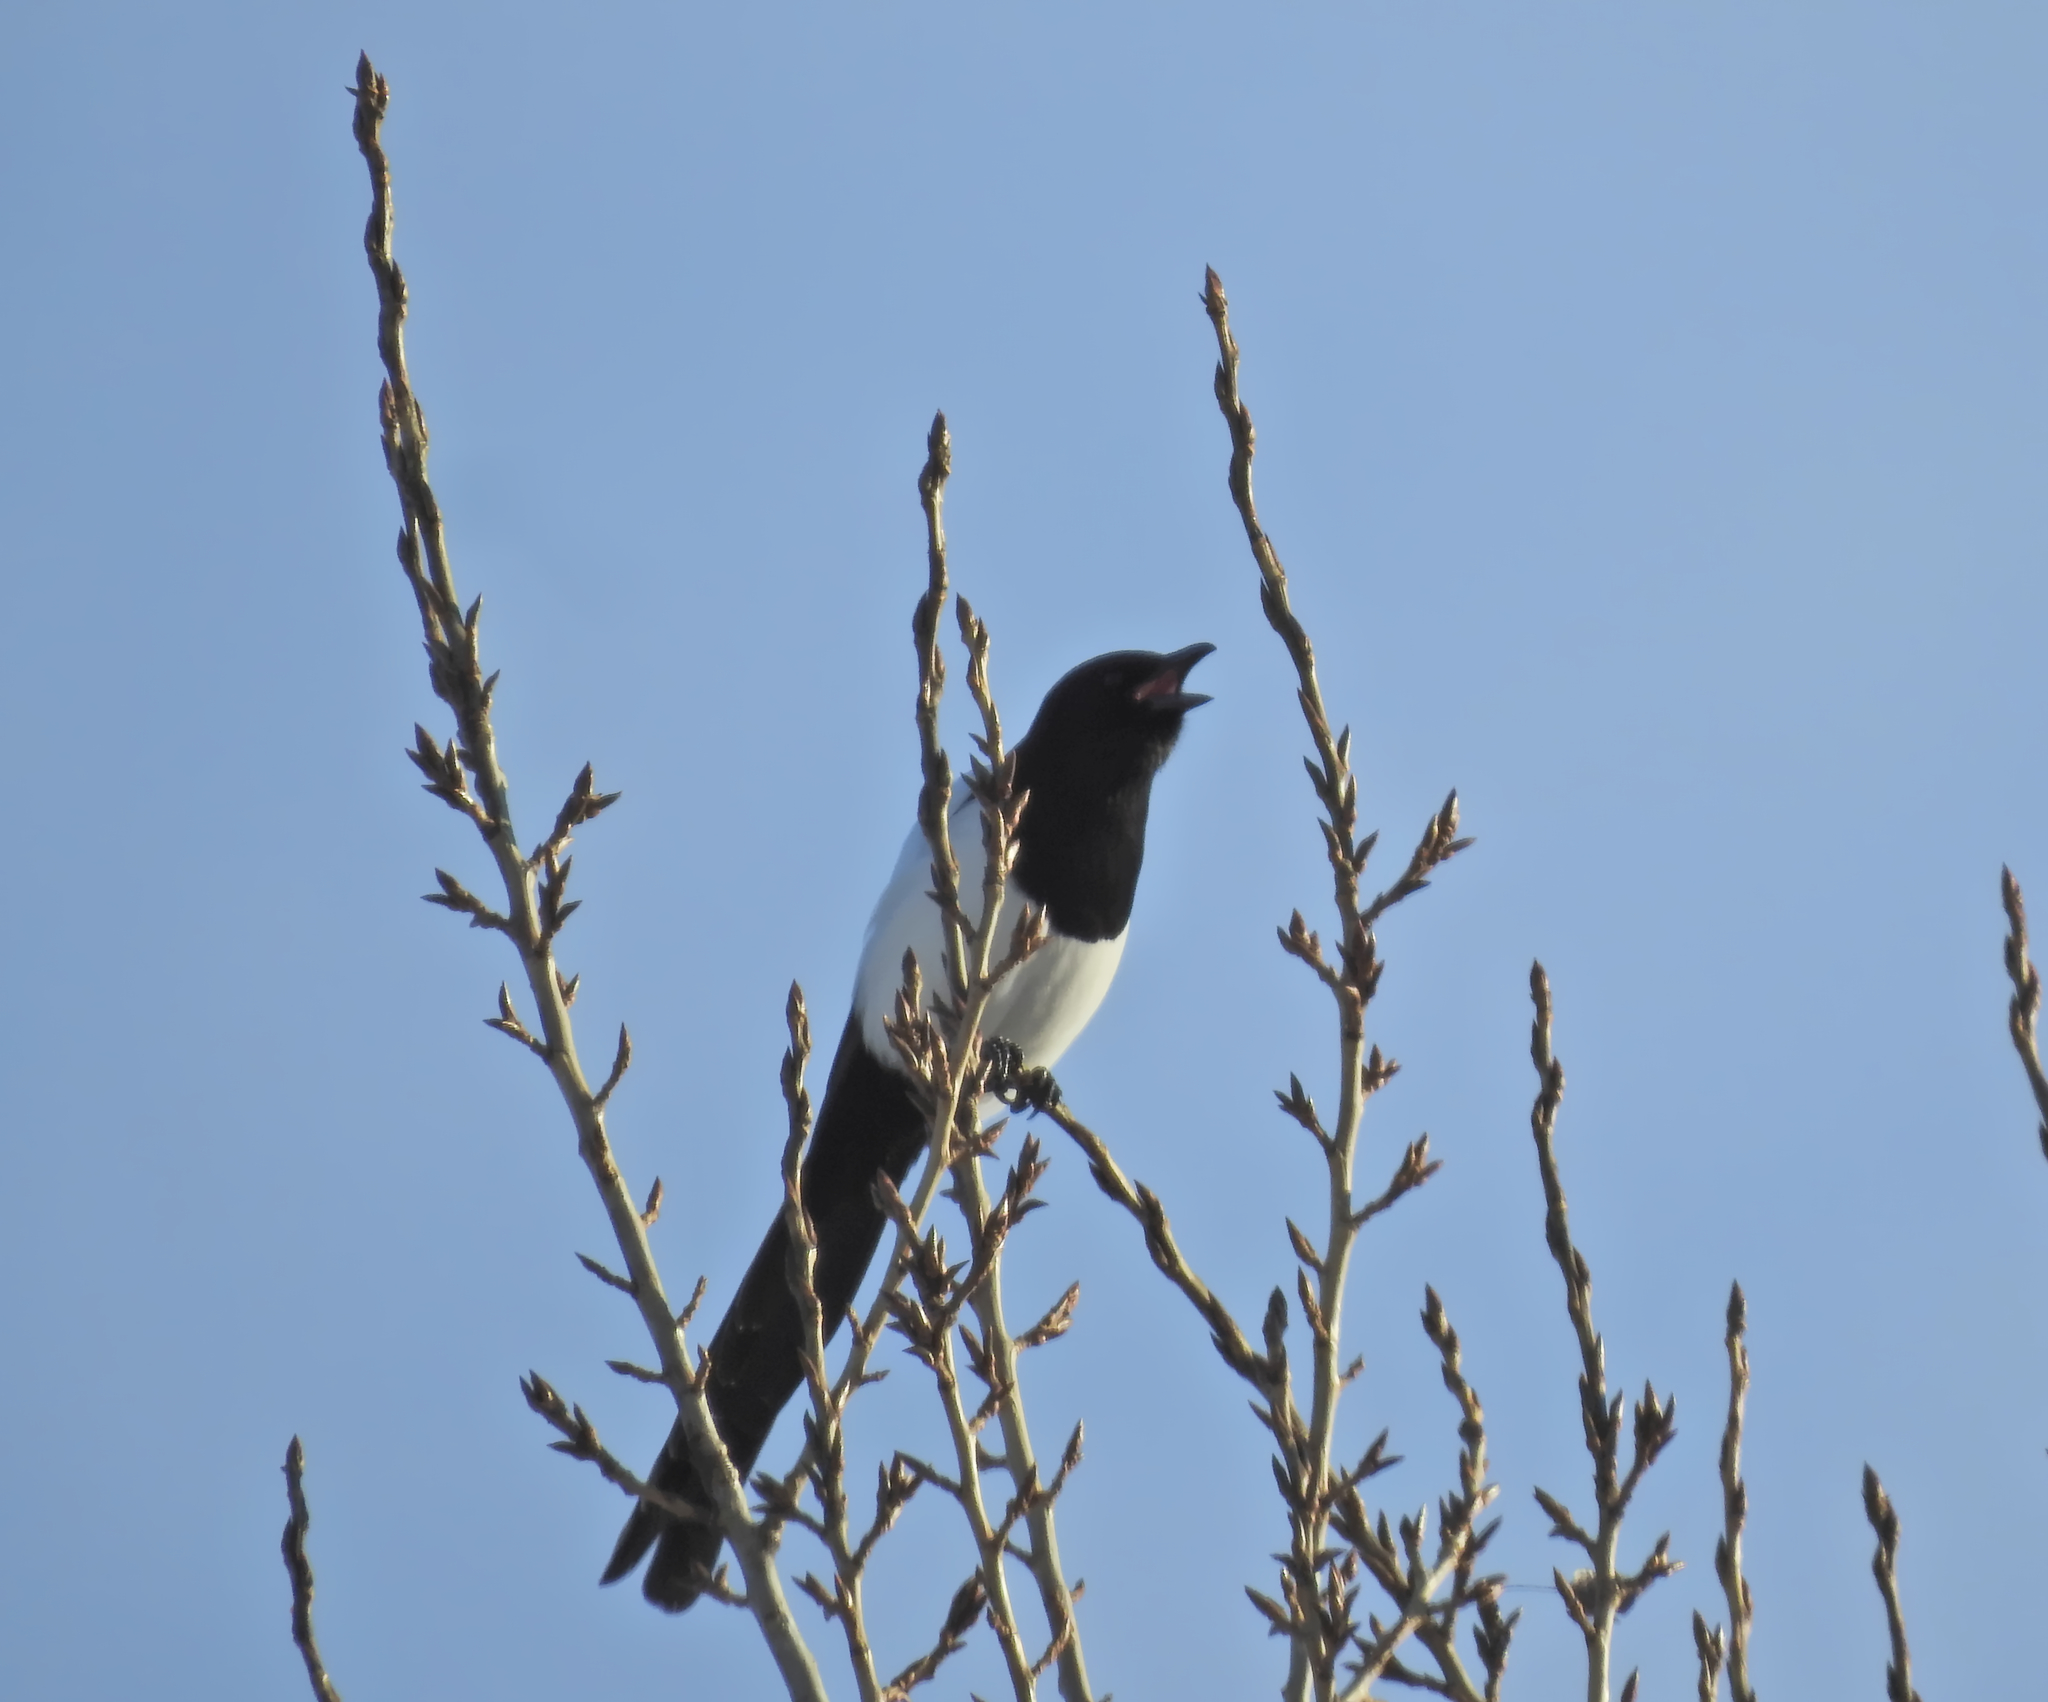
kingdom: Animalia
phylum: Chordata
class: Aves
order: Passeriformes
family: Corvidae
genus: Pica
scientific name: Pica pica
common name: Eurasian magpie
